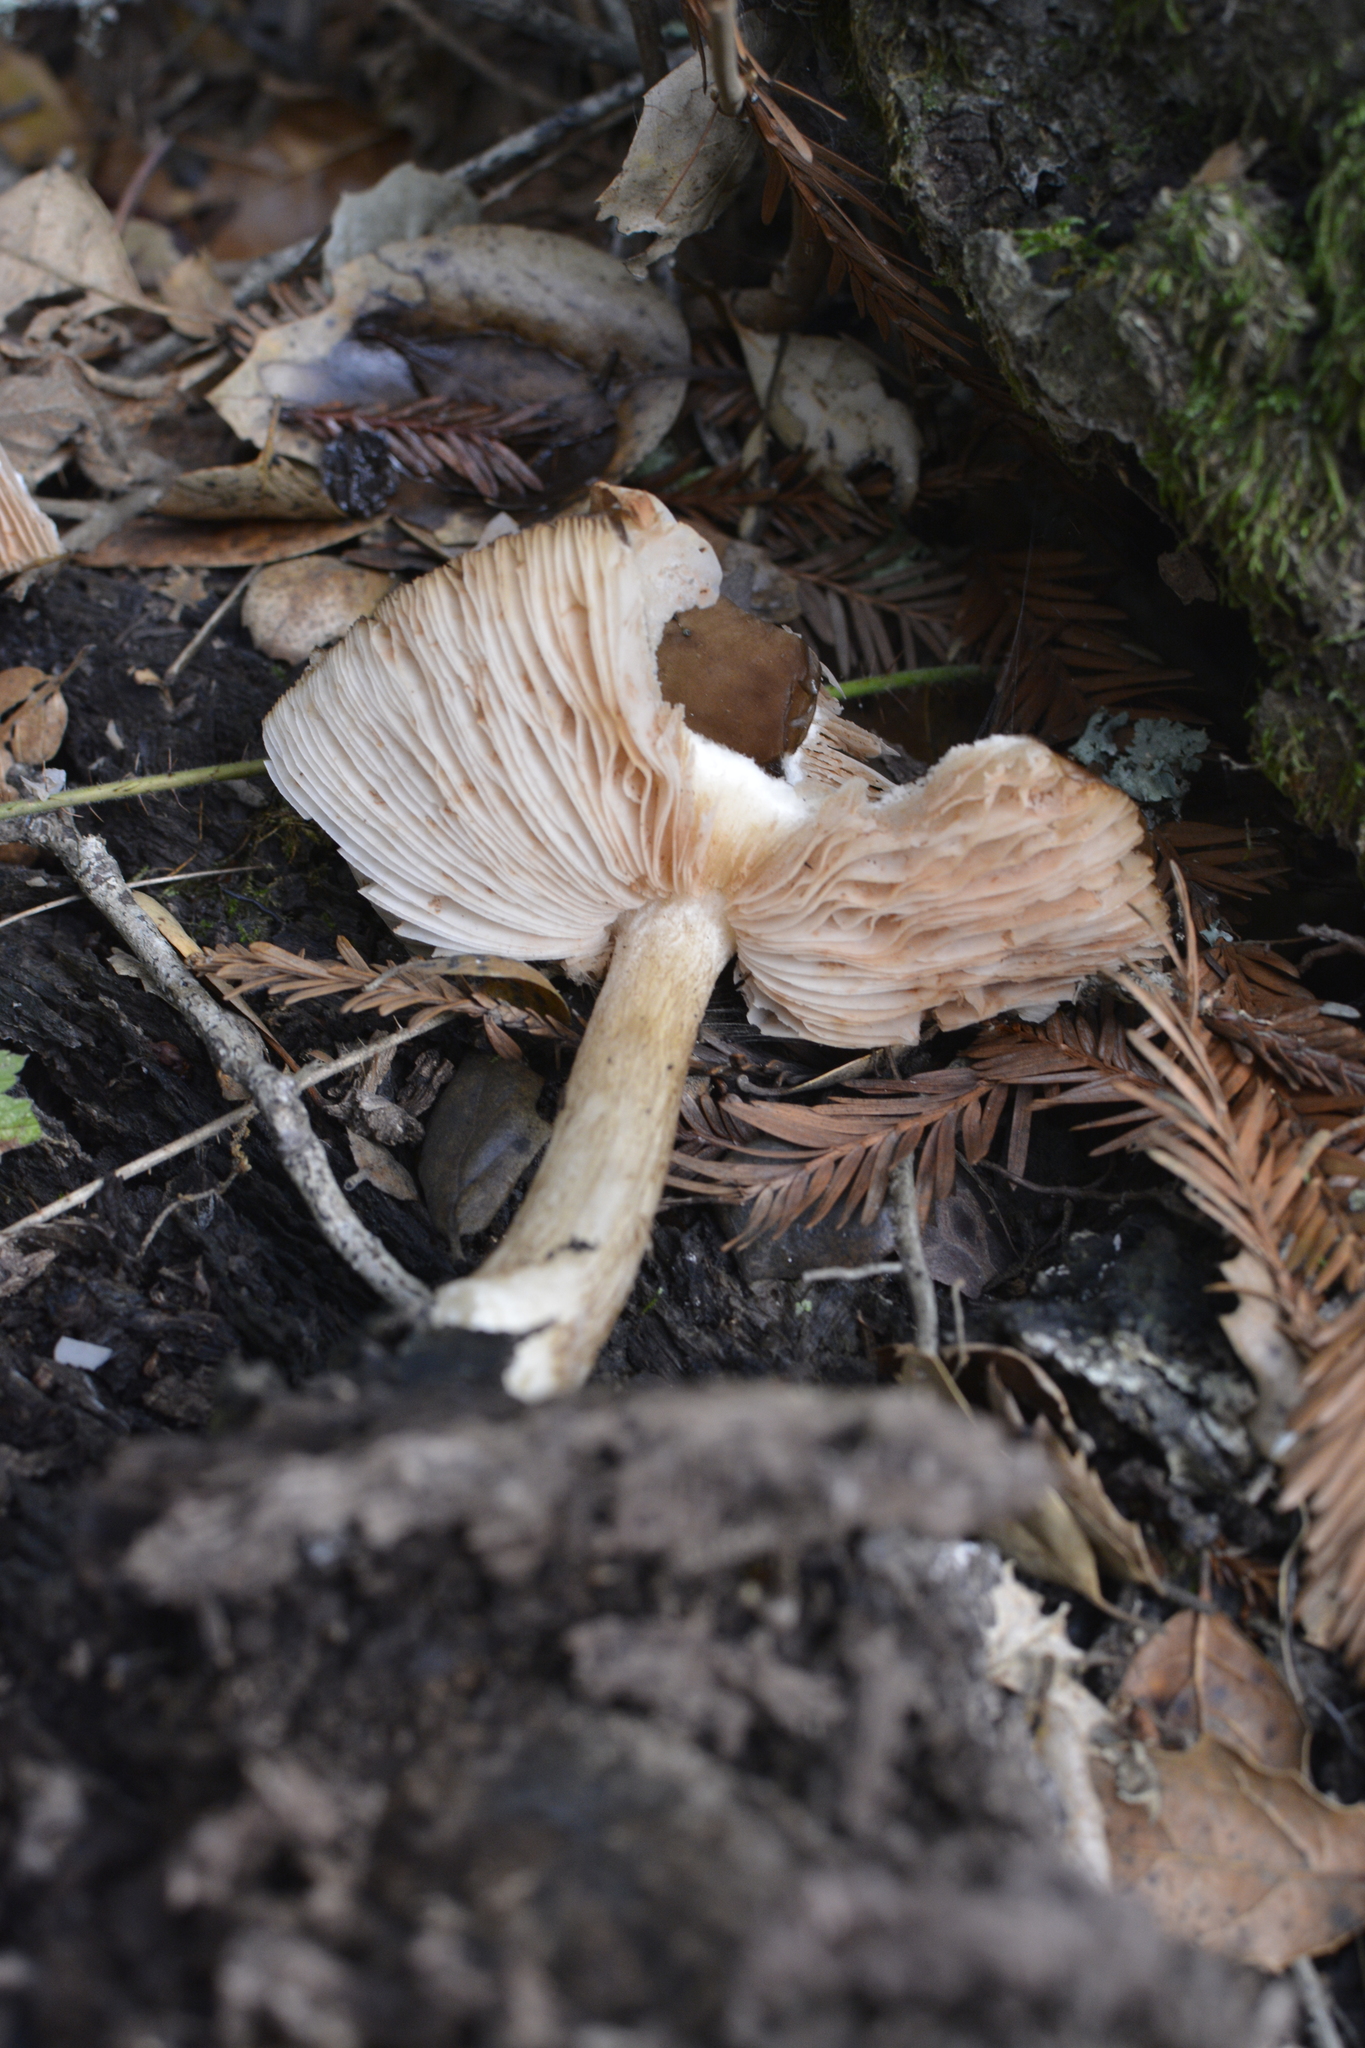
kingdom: Fungi
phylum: Basidiomycota
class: Agaricomycetes
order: Agaricales
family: Pluteaceae
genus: Pluteus
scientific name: Pluteus exilis
